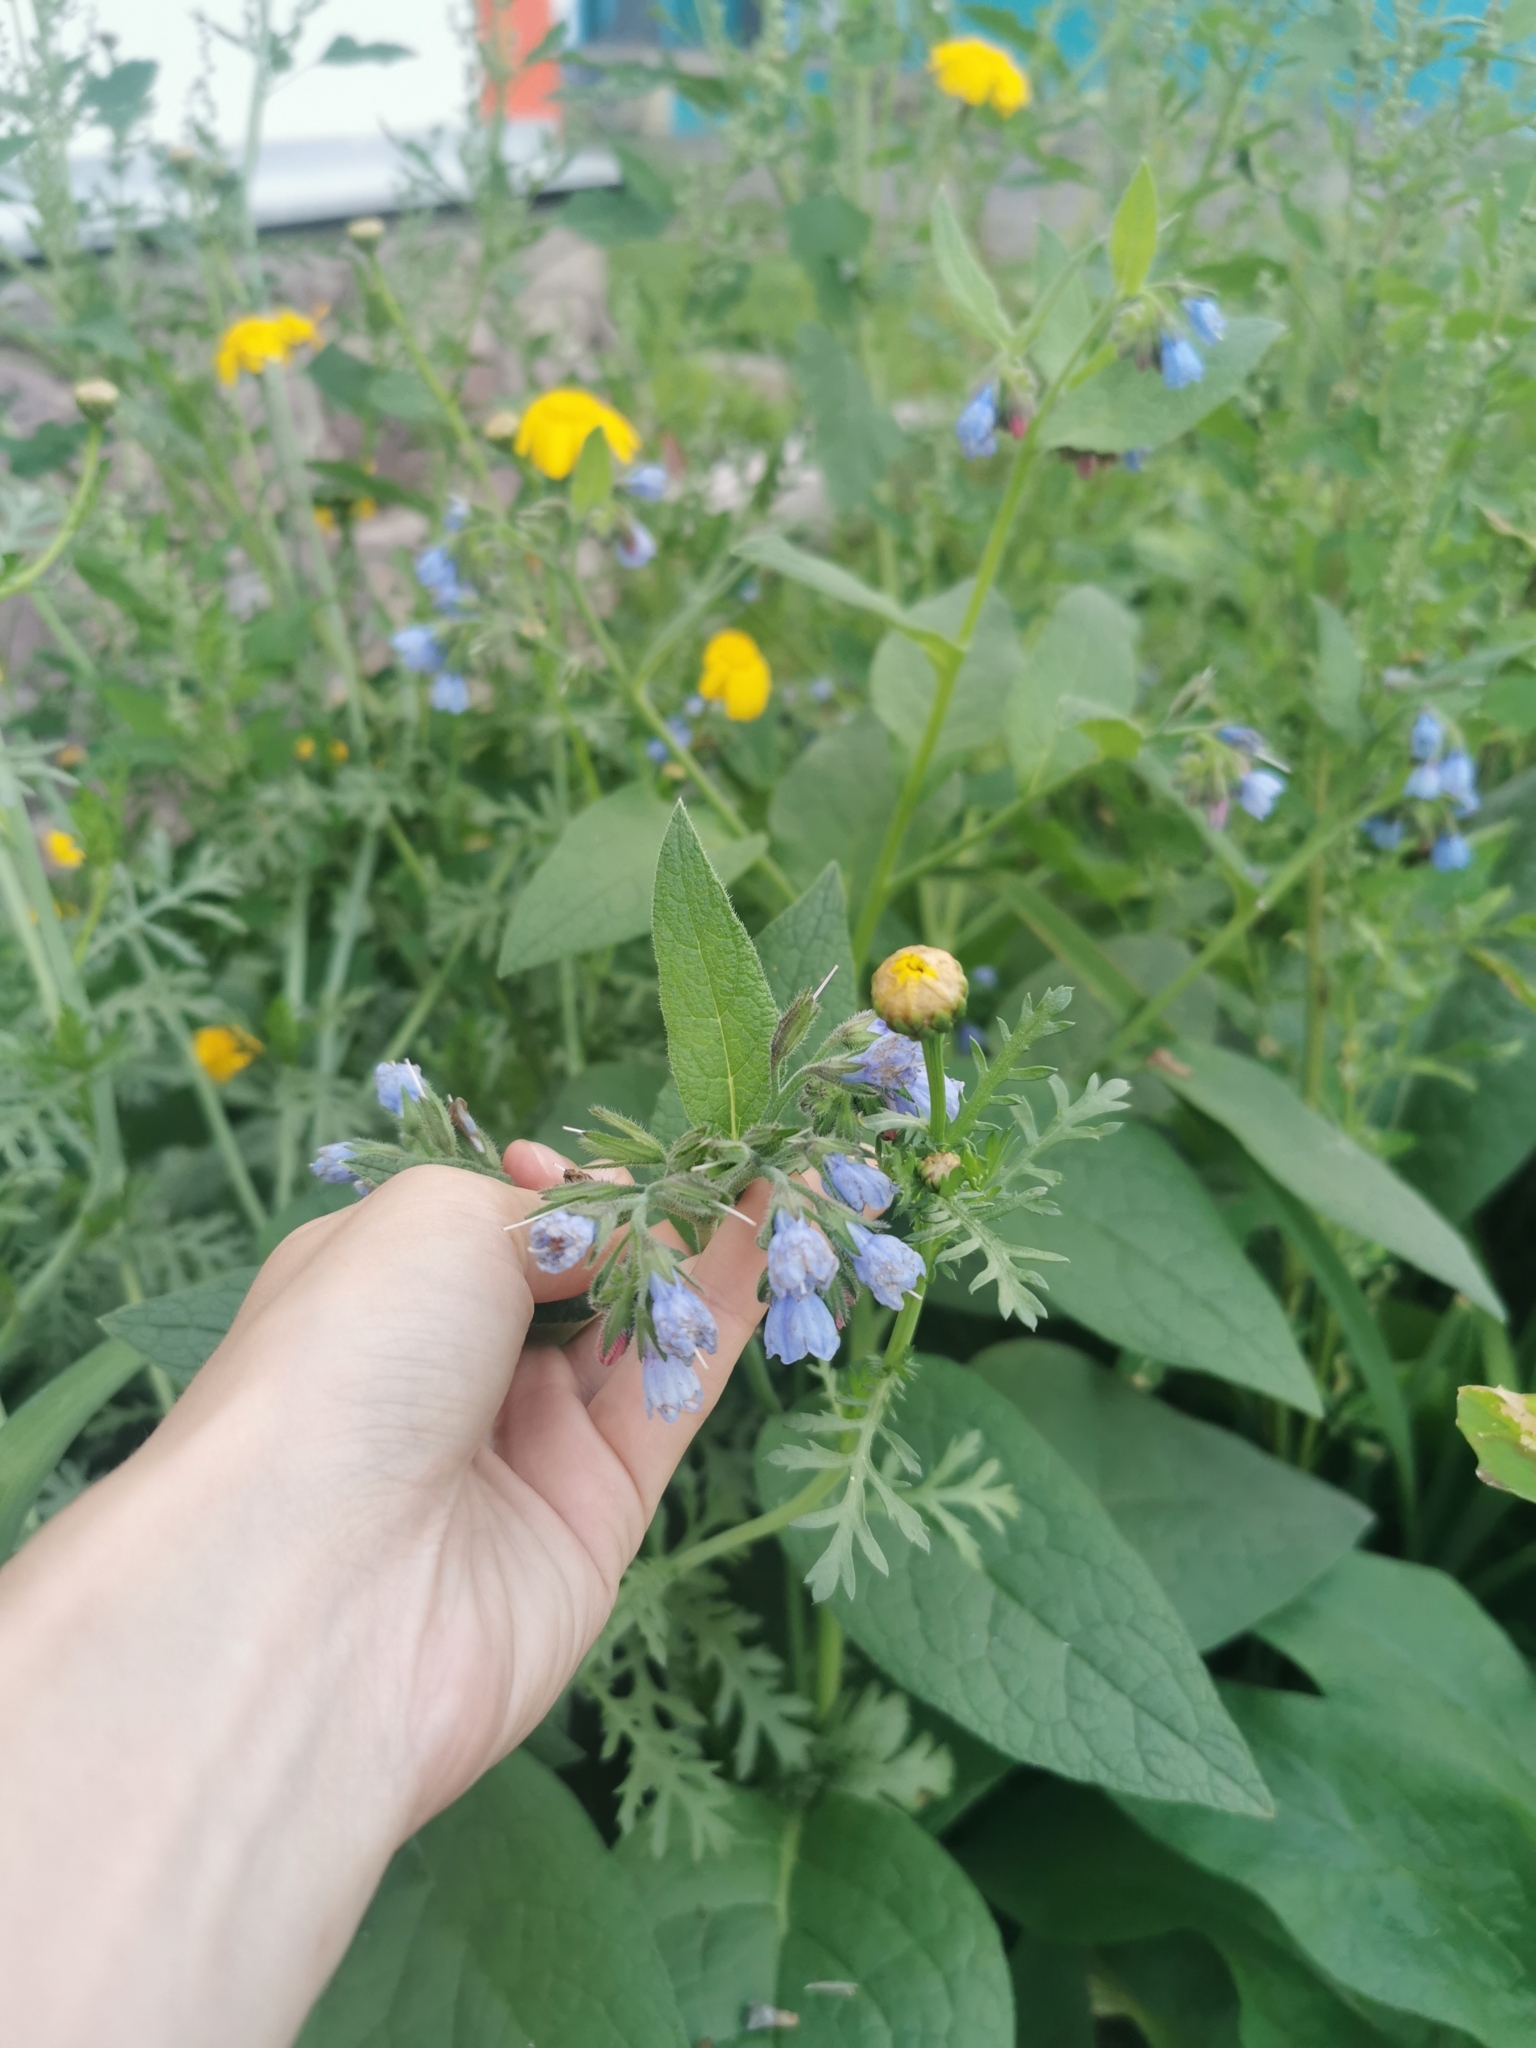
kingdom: Plantae
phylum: Tracheophyta
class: Magnoliopsida
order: Boraginales
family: Boraginaceae
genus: Symphytum
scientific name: Symphytum caucasicum
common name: Caucasian comfrey
